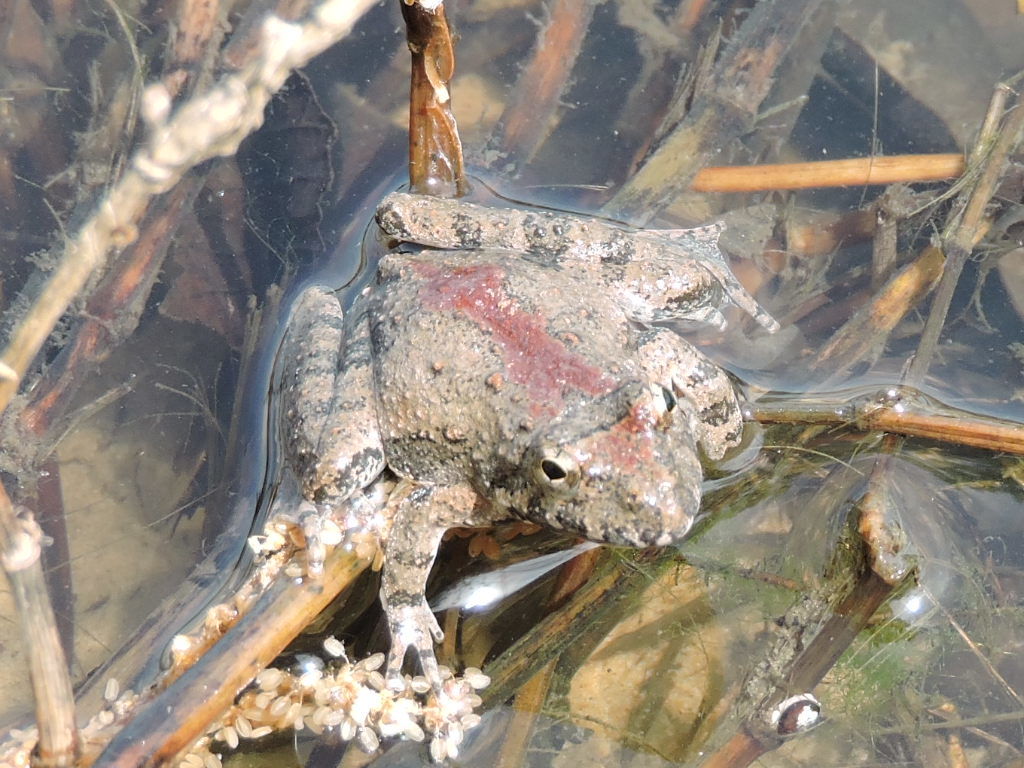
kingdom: Animalia
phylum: Chordata
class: Amphibia
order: Anura
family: Hylidae
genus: Acris
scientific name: Acris blanchardi
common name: Blanchard's cricket frog
